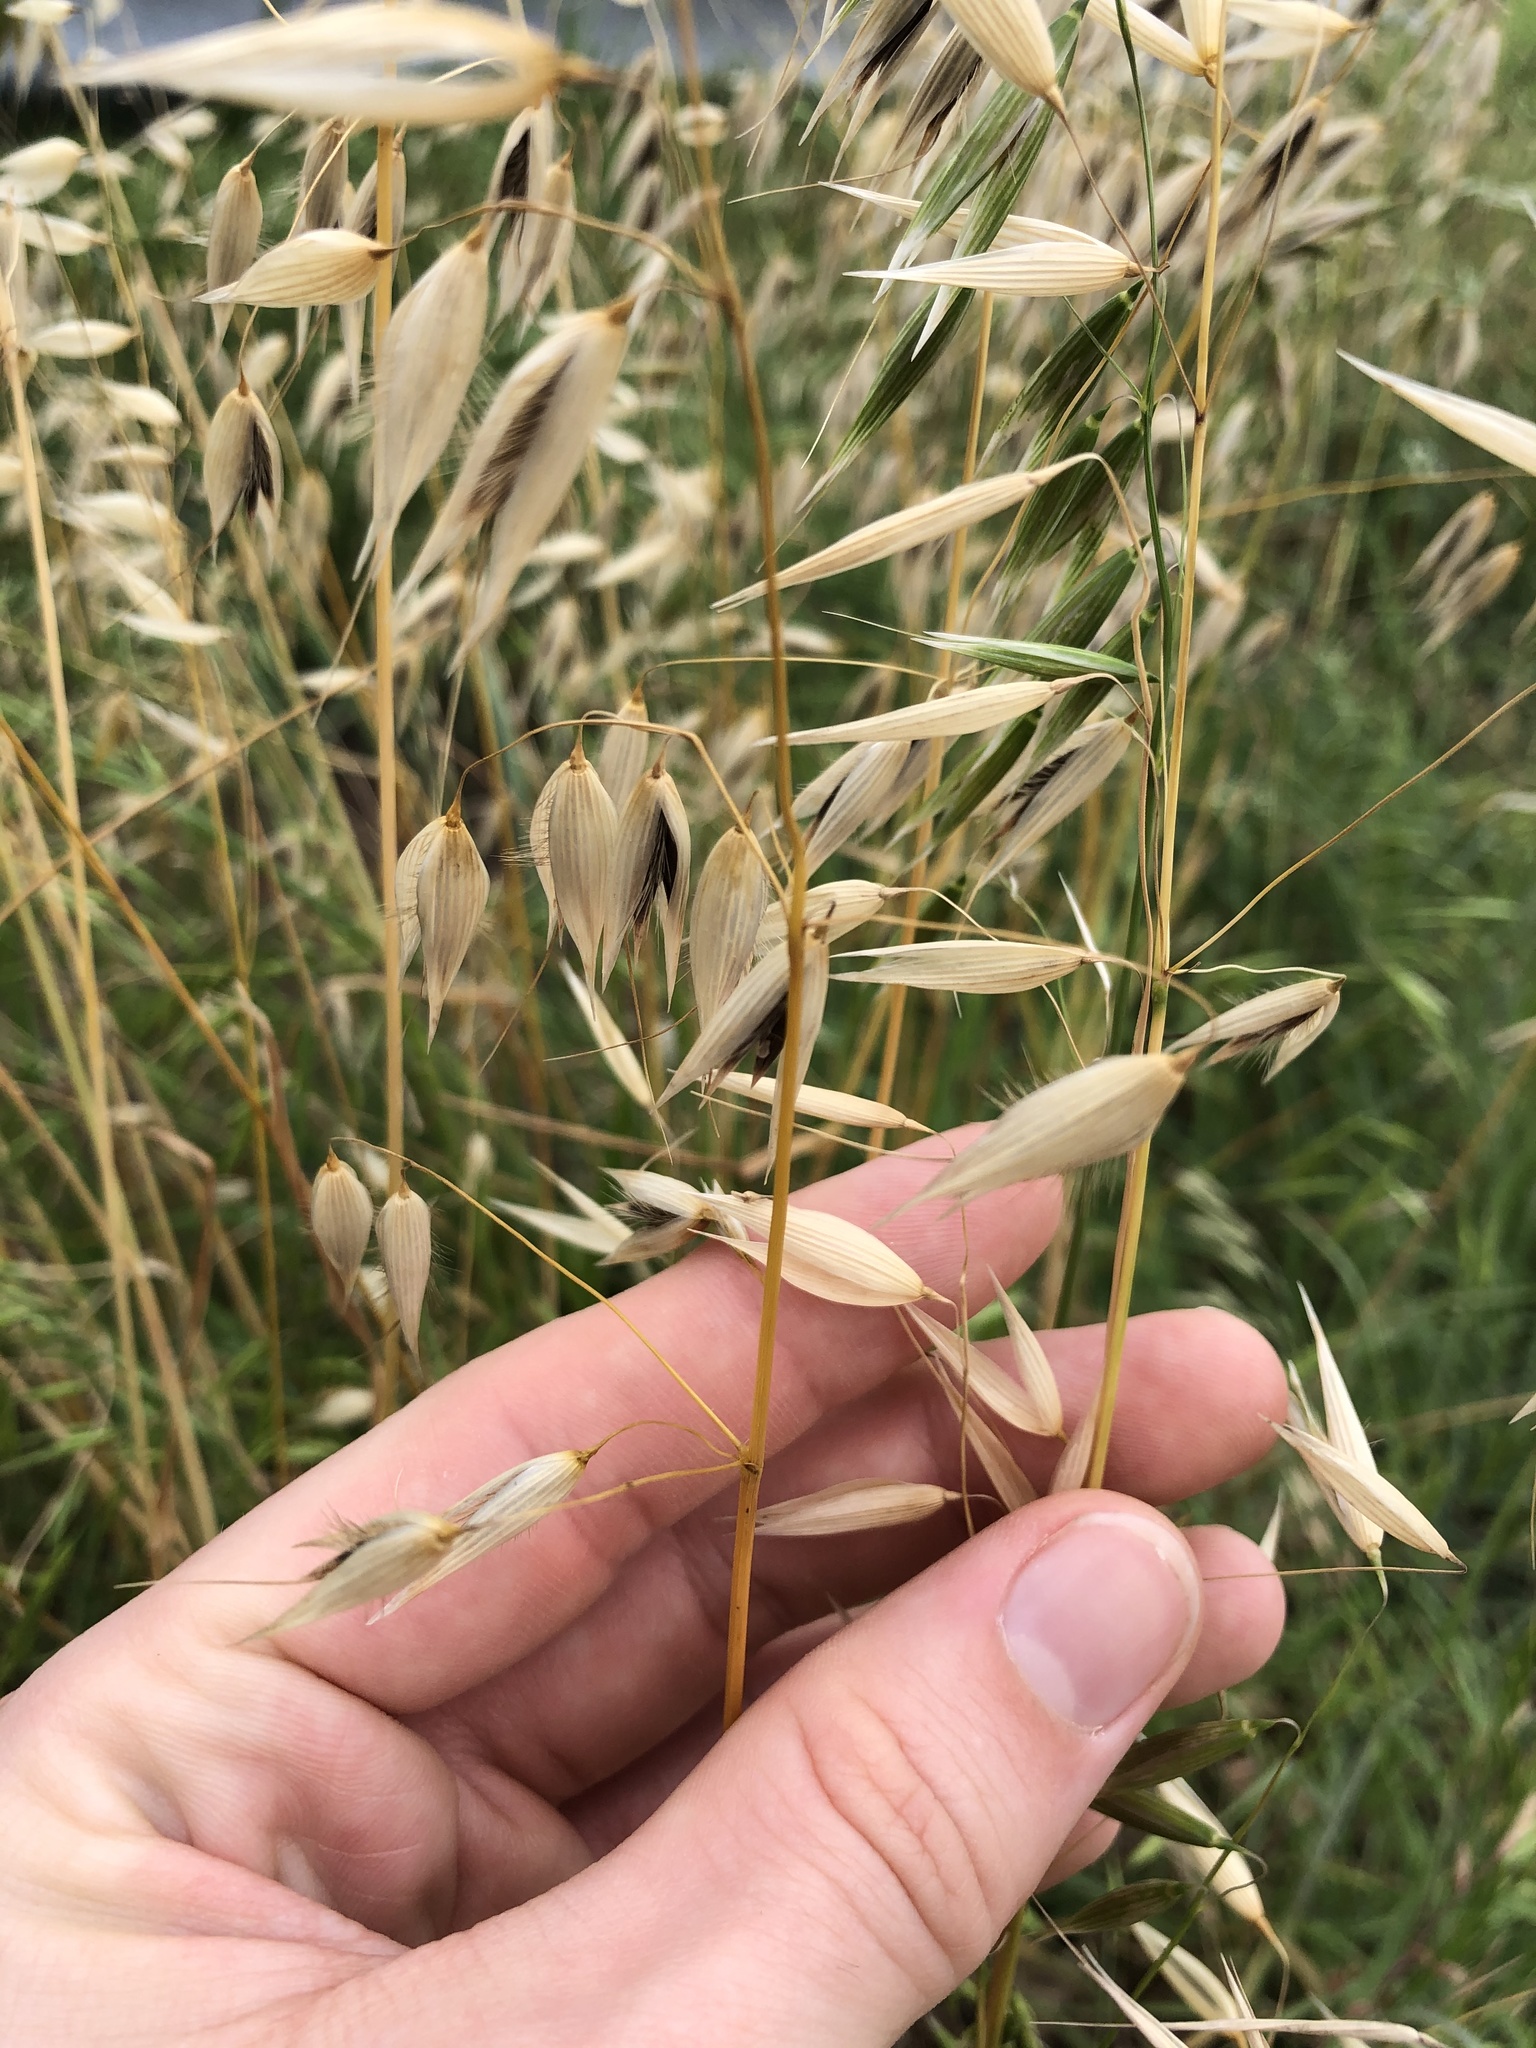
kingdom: Plantae
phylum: Tracheophyta
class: Liliopsida
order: Poales
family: Poaceae
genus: Avena
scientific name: Avena fatua
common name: Wild oat
